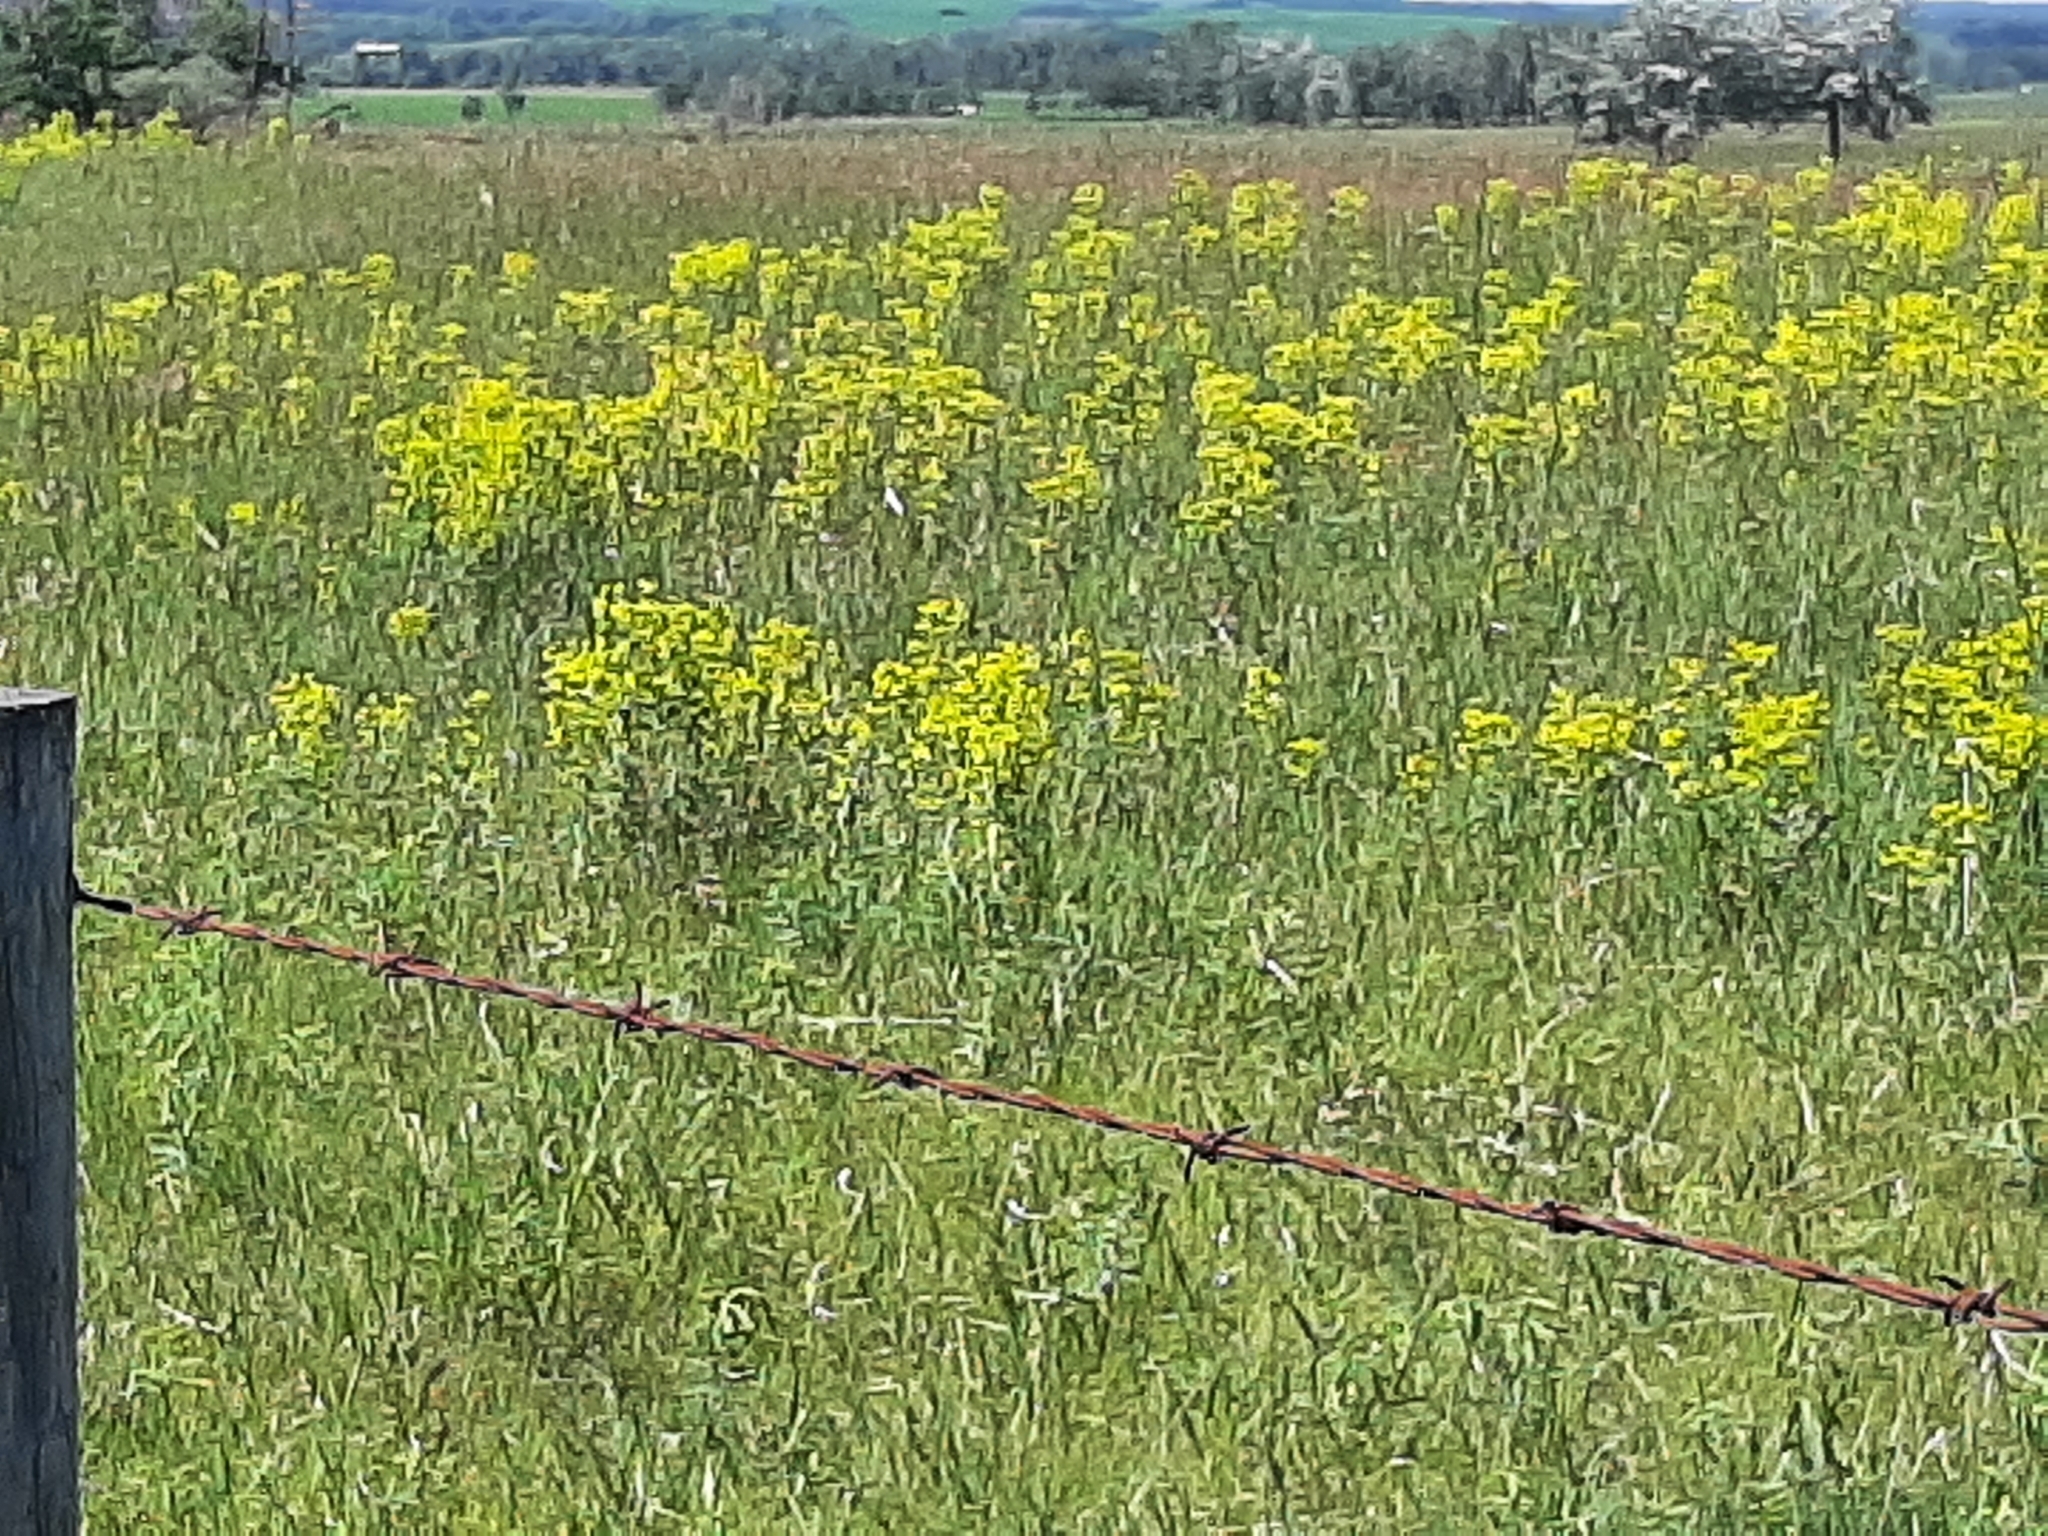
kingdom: Plantae
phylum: Tracheophyta
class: Magnoliopsida
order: Malpighiales
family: Euphorbiaceae
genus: Euphorbia
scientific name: Euphorbia virgata
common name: Leafy spurge
